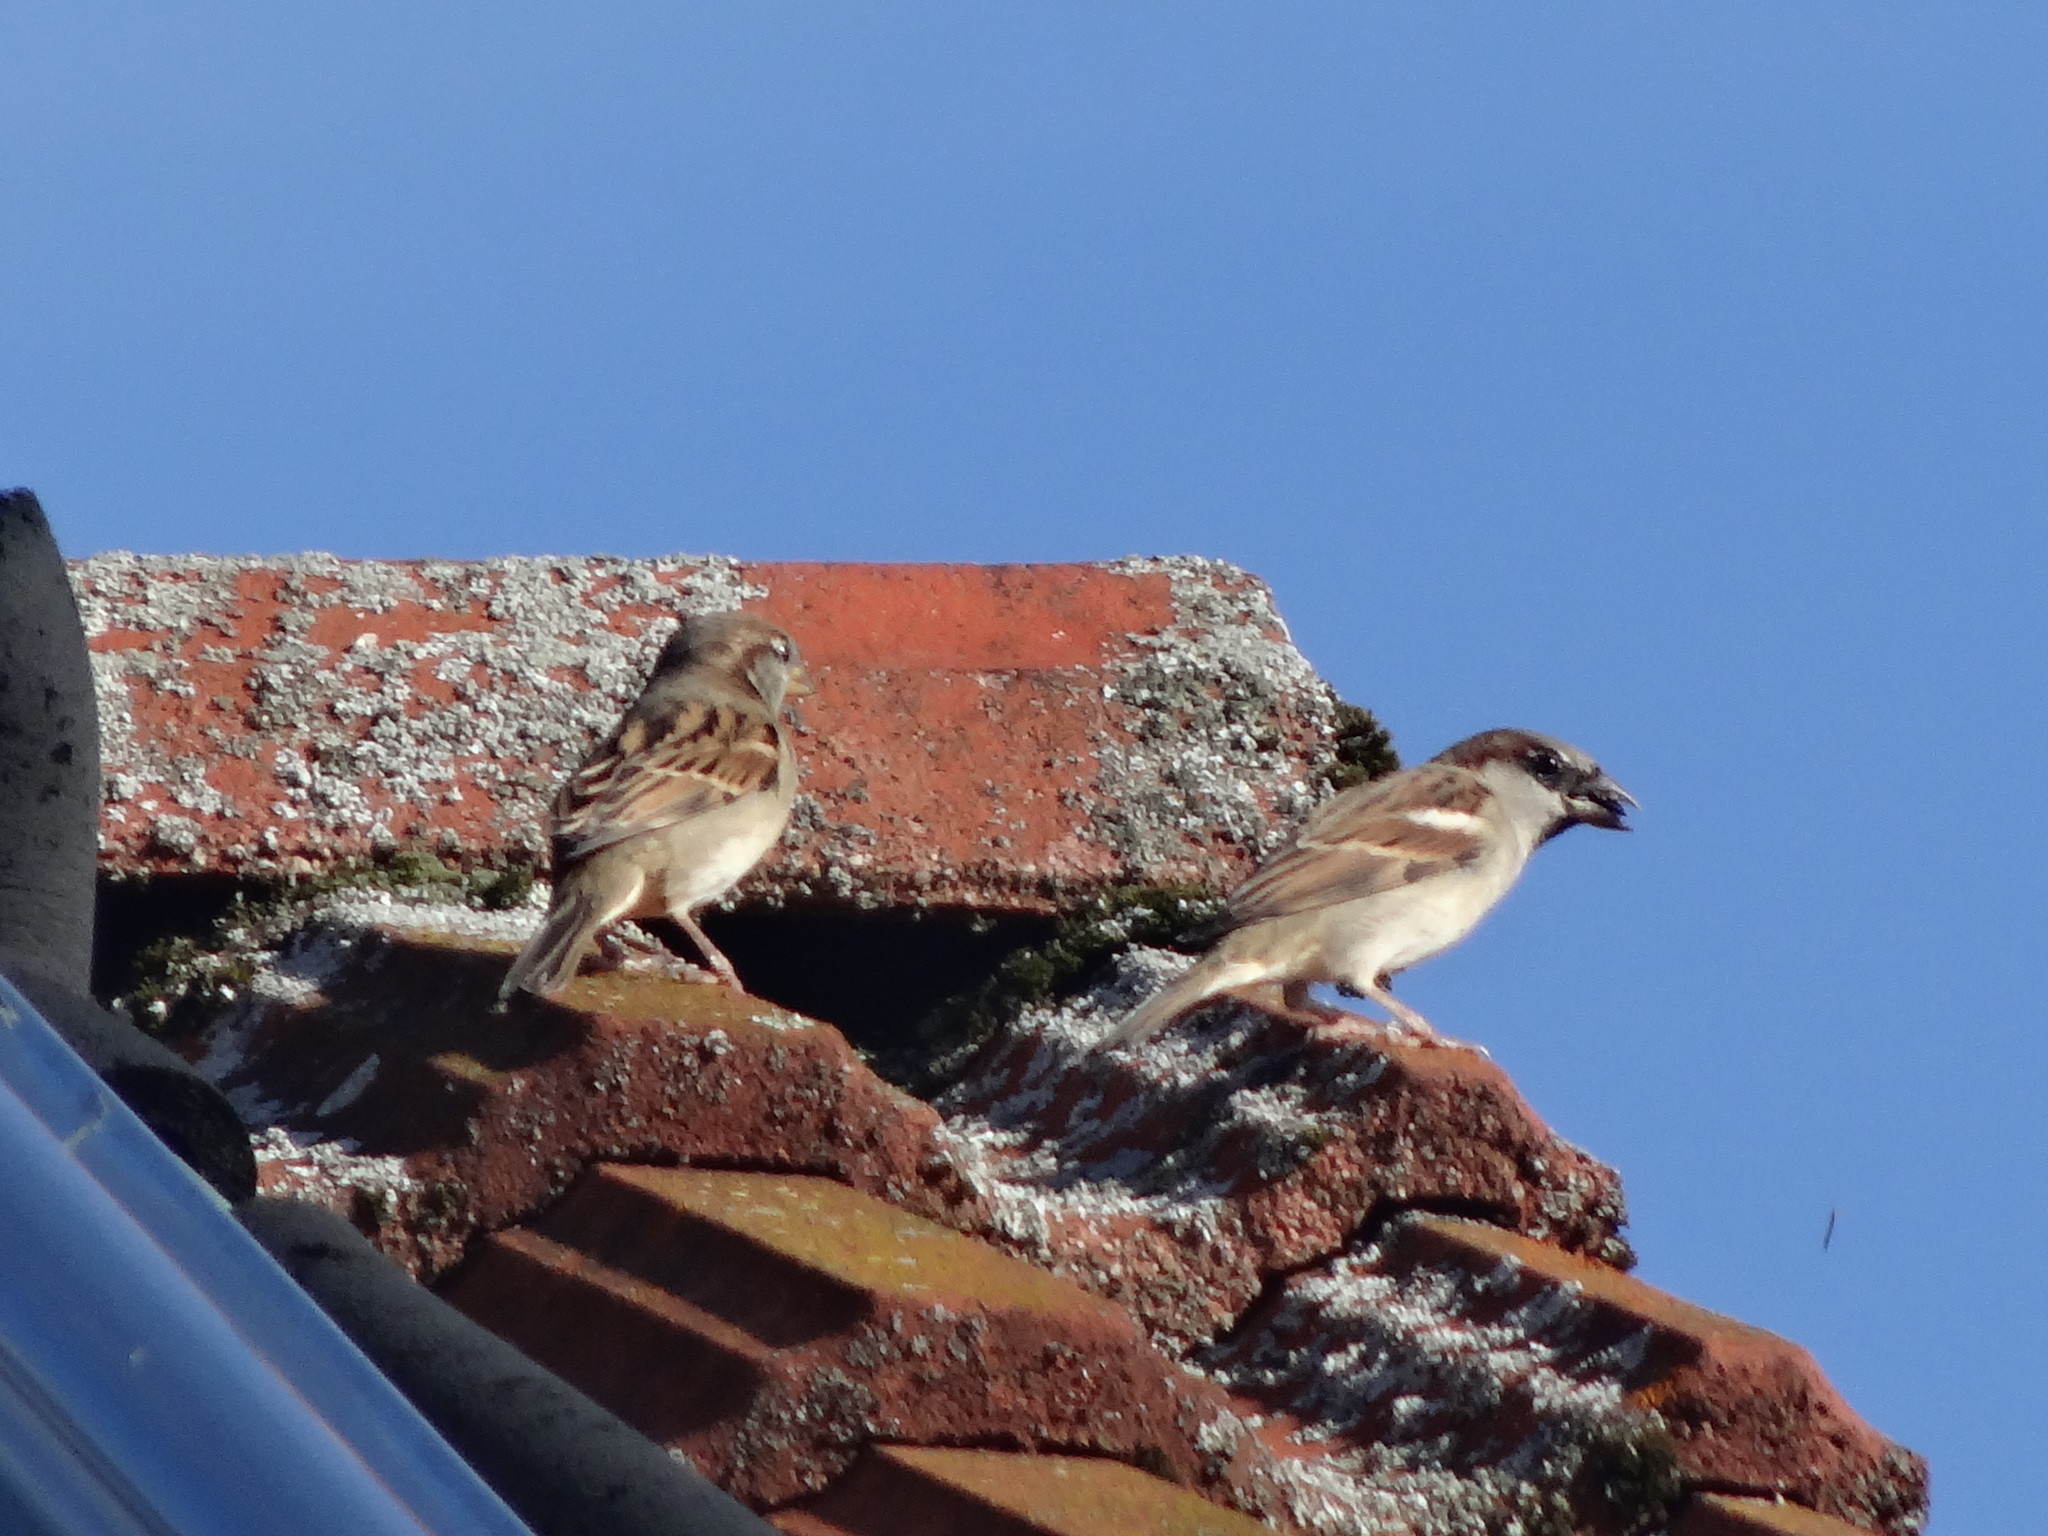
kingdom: Animalia
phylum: Chordata
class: Aves
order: Passeriformes
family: Passeridae
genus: Passer
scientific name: Passer domesticus
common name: House sparrow
